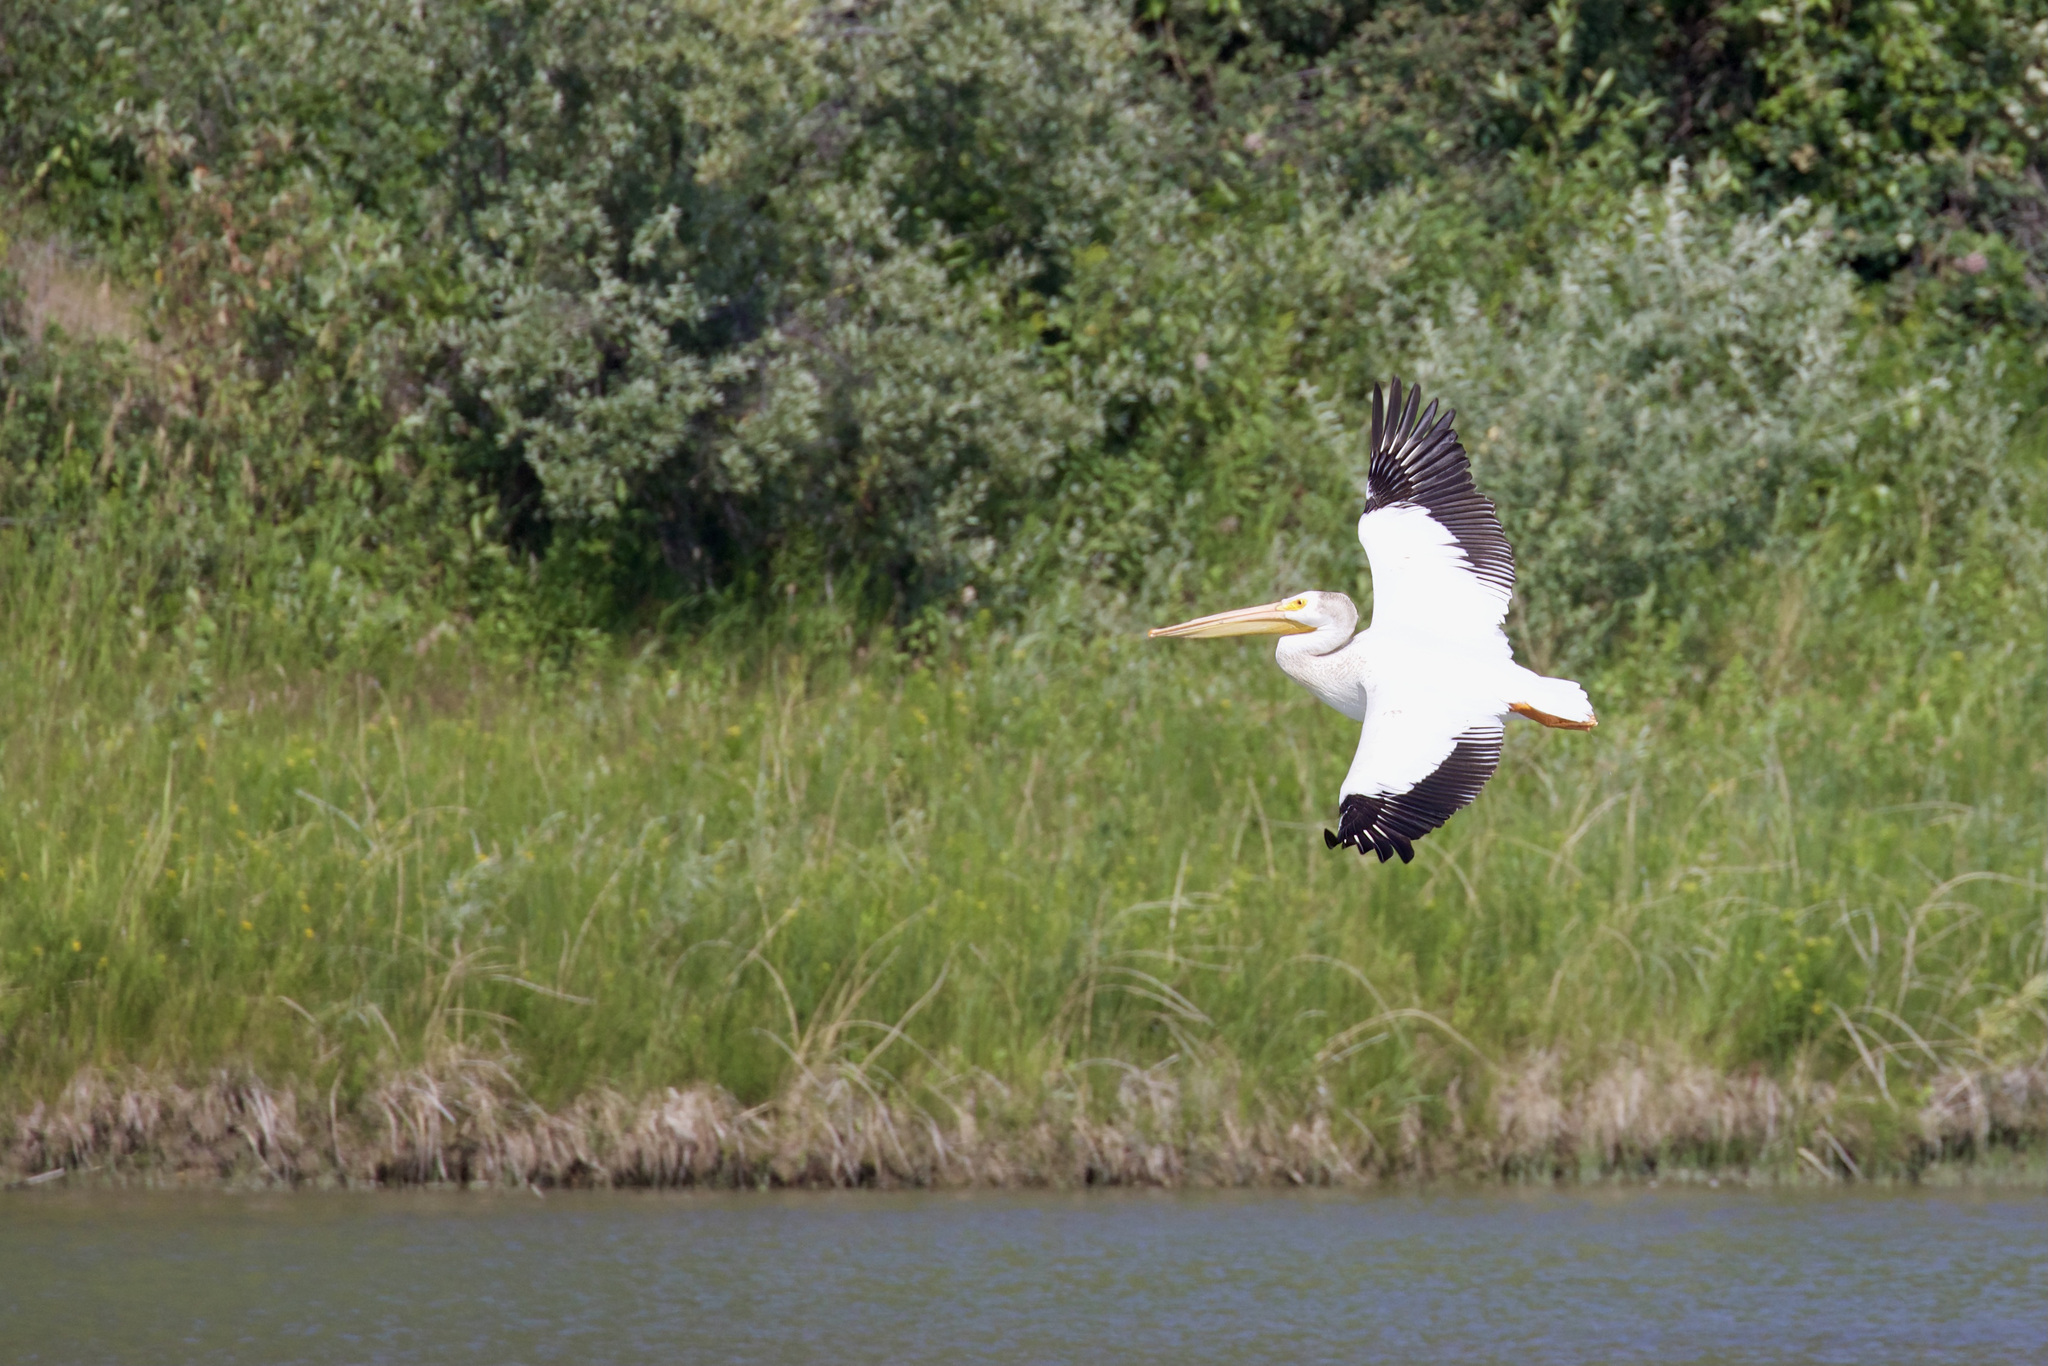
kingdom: Animalia
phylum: Chordata
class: Aves
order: Pelecaniformes
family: Pelecanidae
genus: Pelecanus
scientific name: Pelecanus erythrorhynchos
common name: American white pelican
